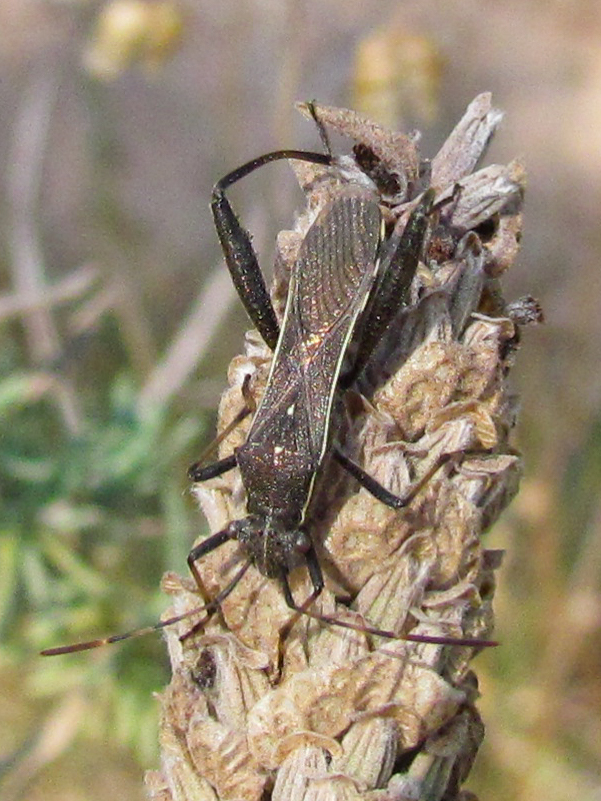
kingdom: Animalia
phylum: Arthropoda
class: Insecta
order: Hemiptera
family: Alydidae
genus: Camptopus
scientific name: Camptopus lateralis
